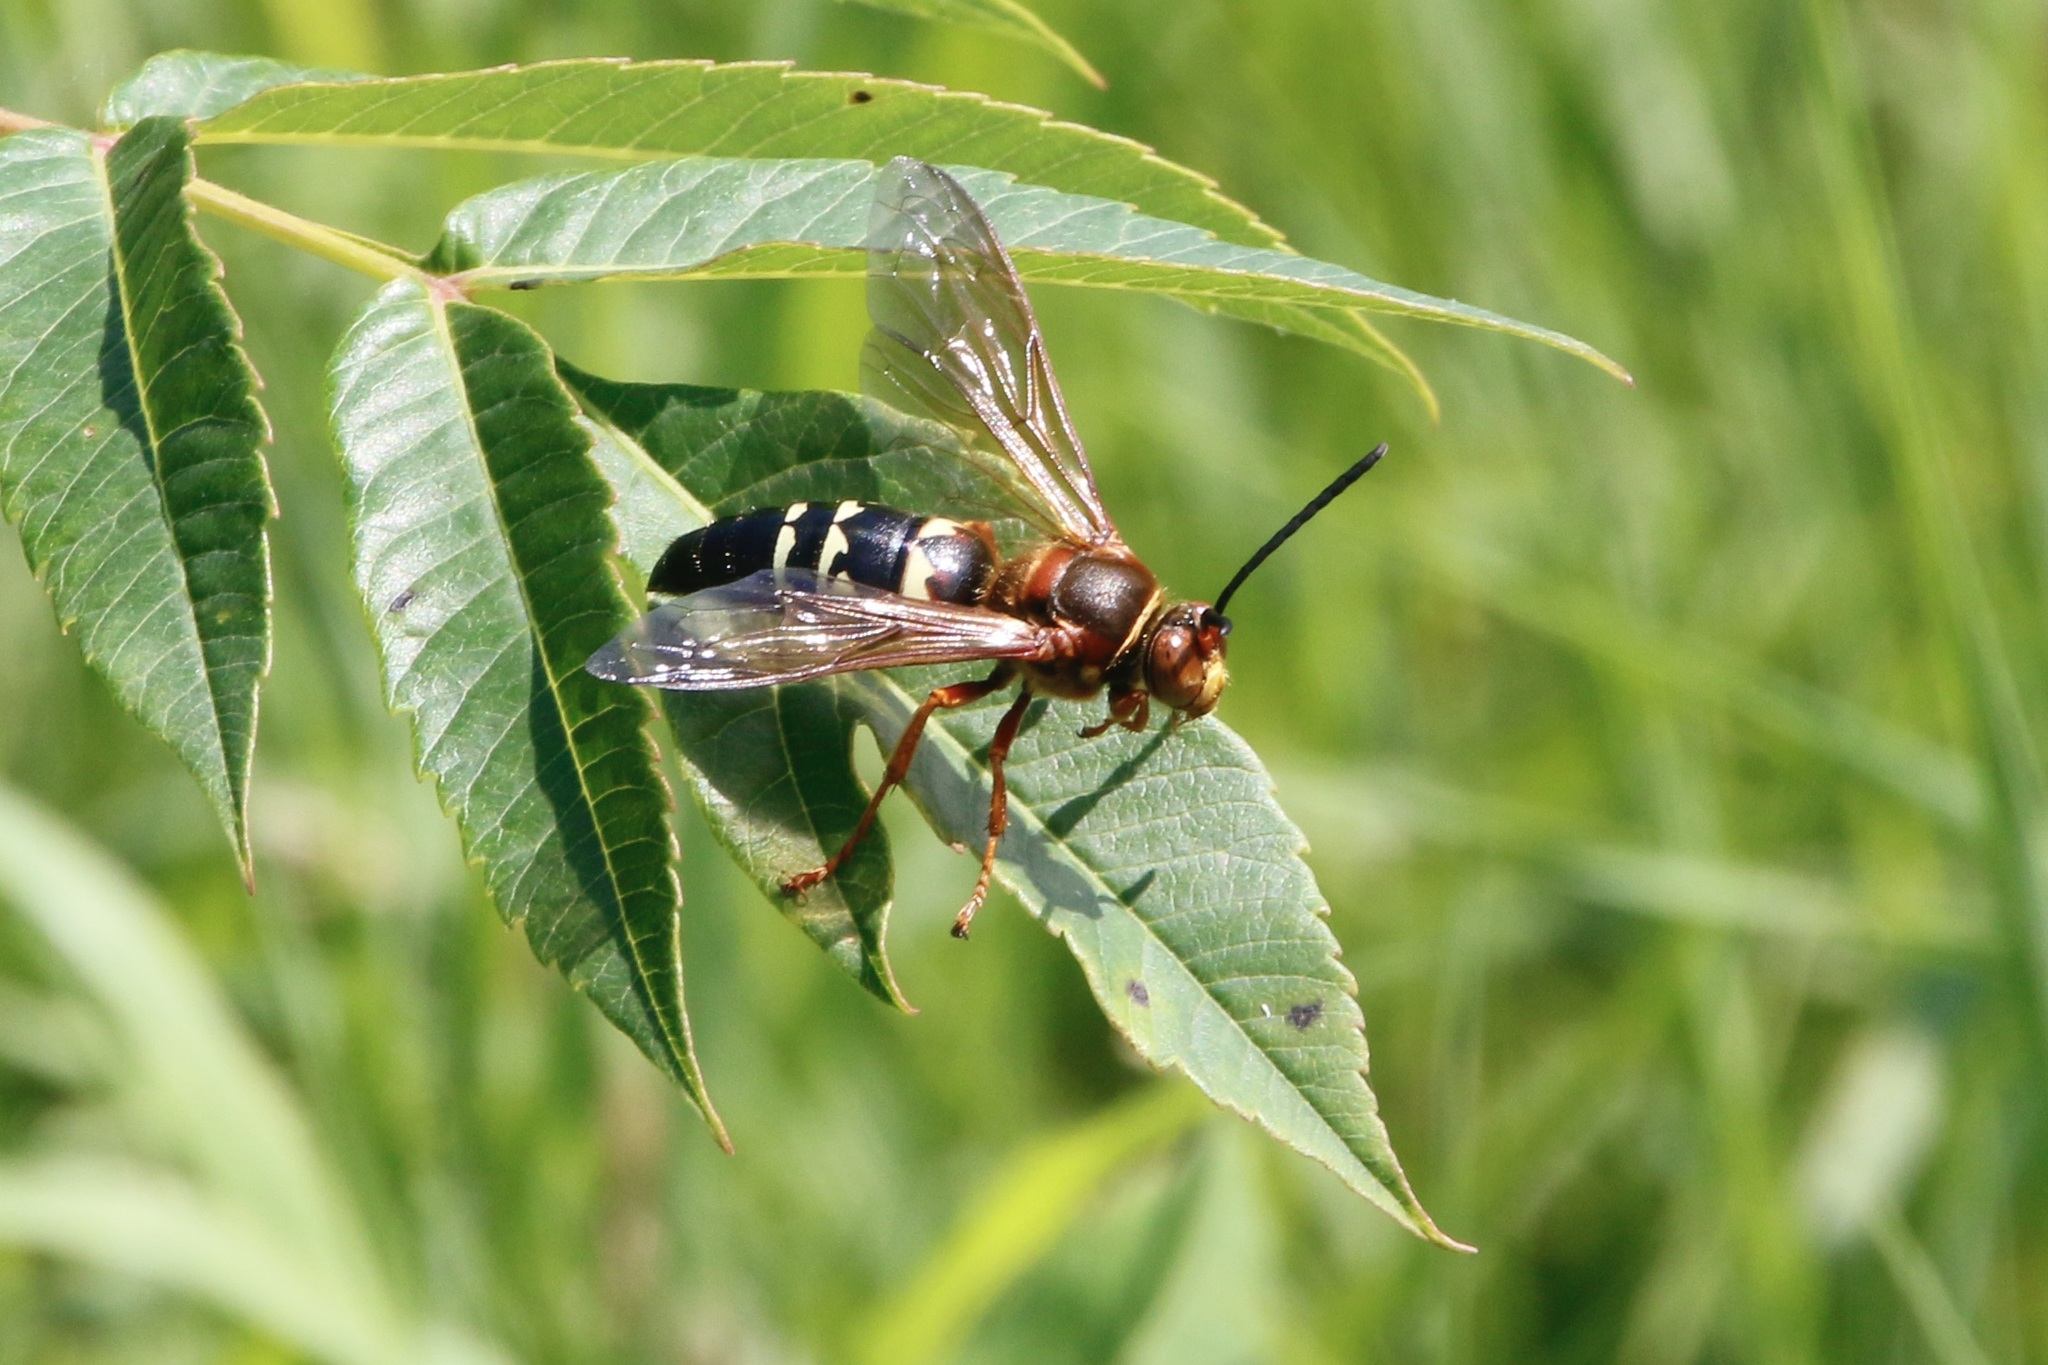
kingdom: Animalia
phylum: Arthropoda
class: Insecta
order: Hymenoptera
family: Crabronidae
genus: Sphecius
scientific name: Sphecius speciosus
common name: Cicada killer
